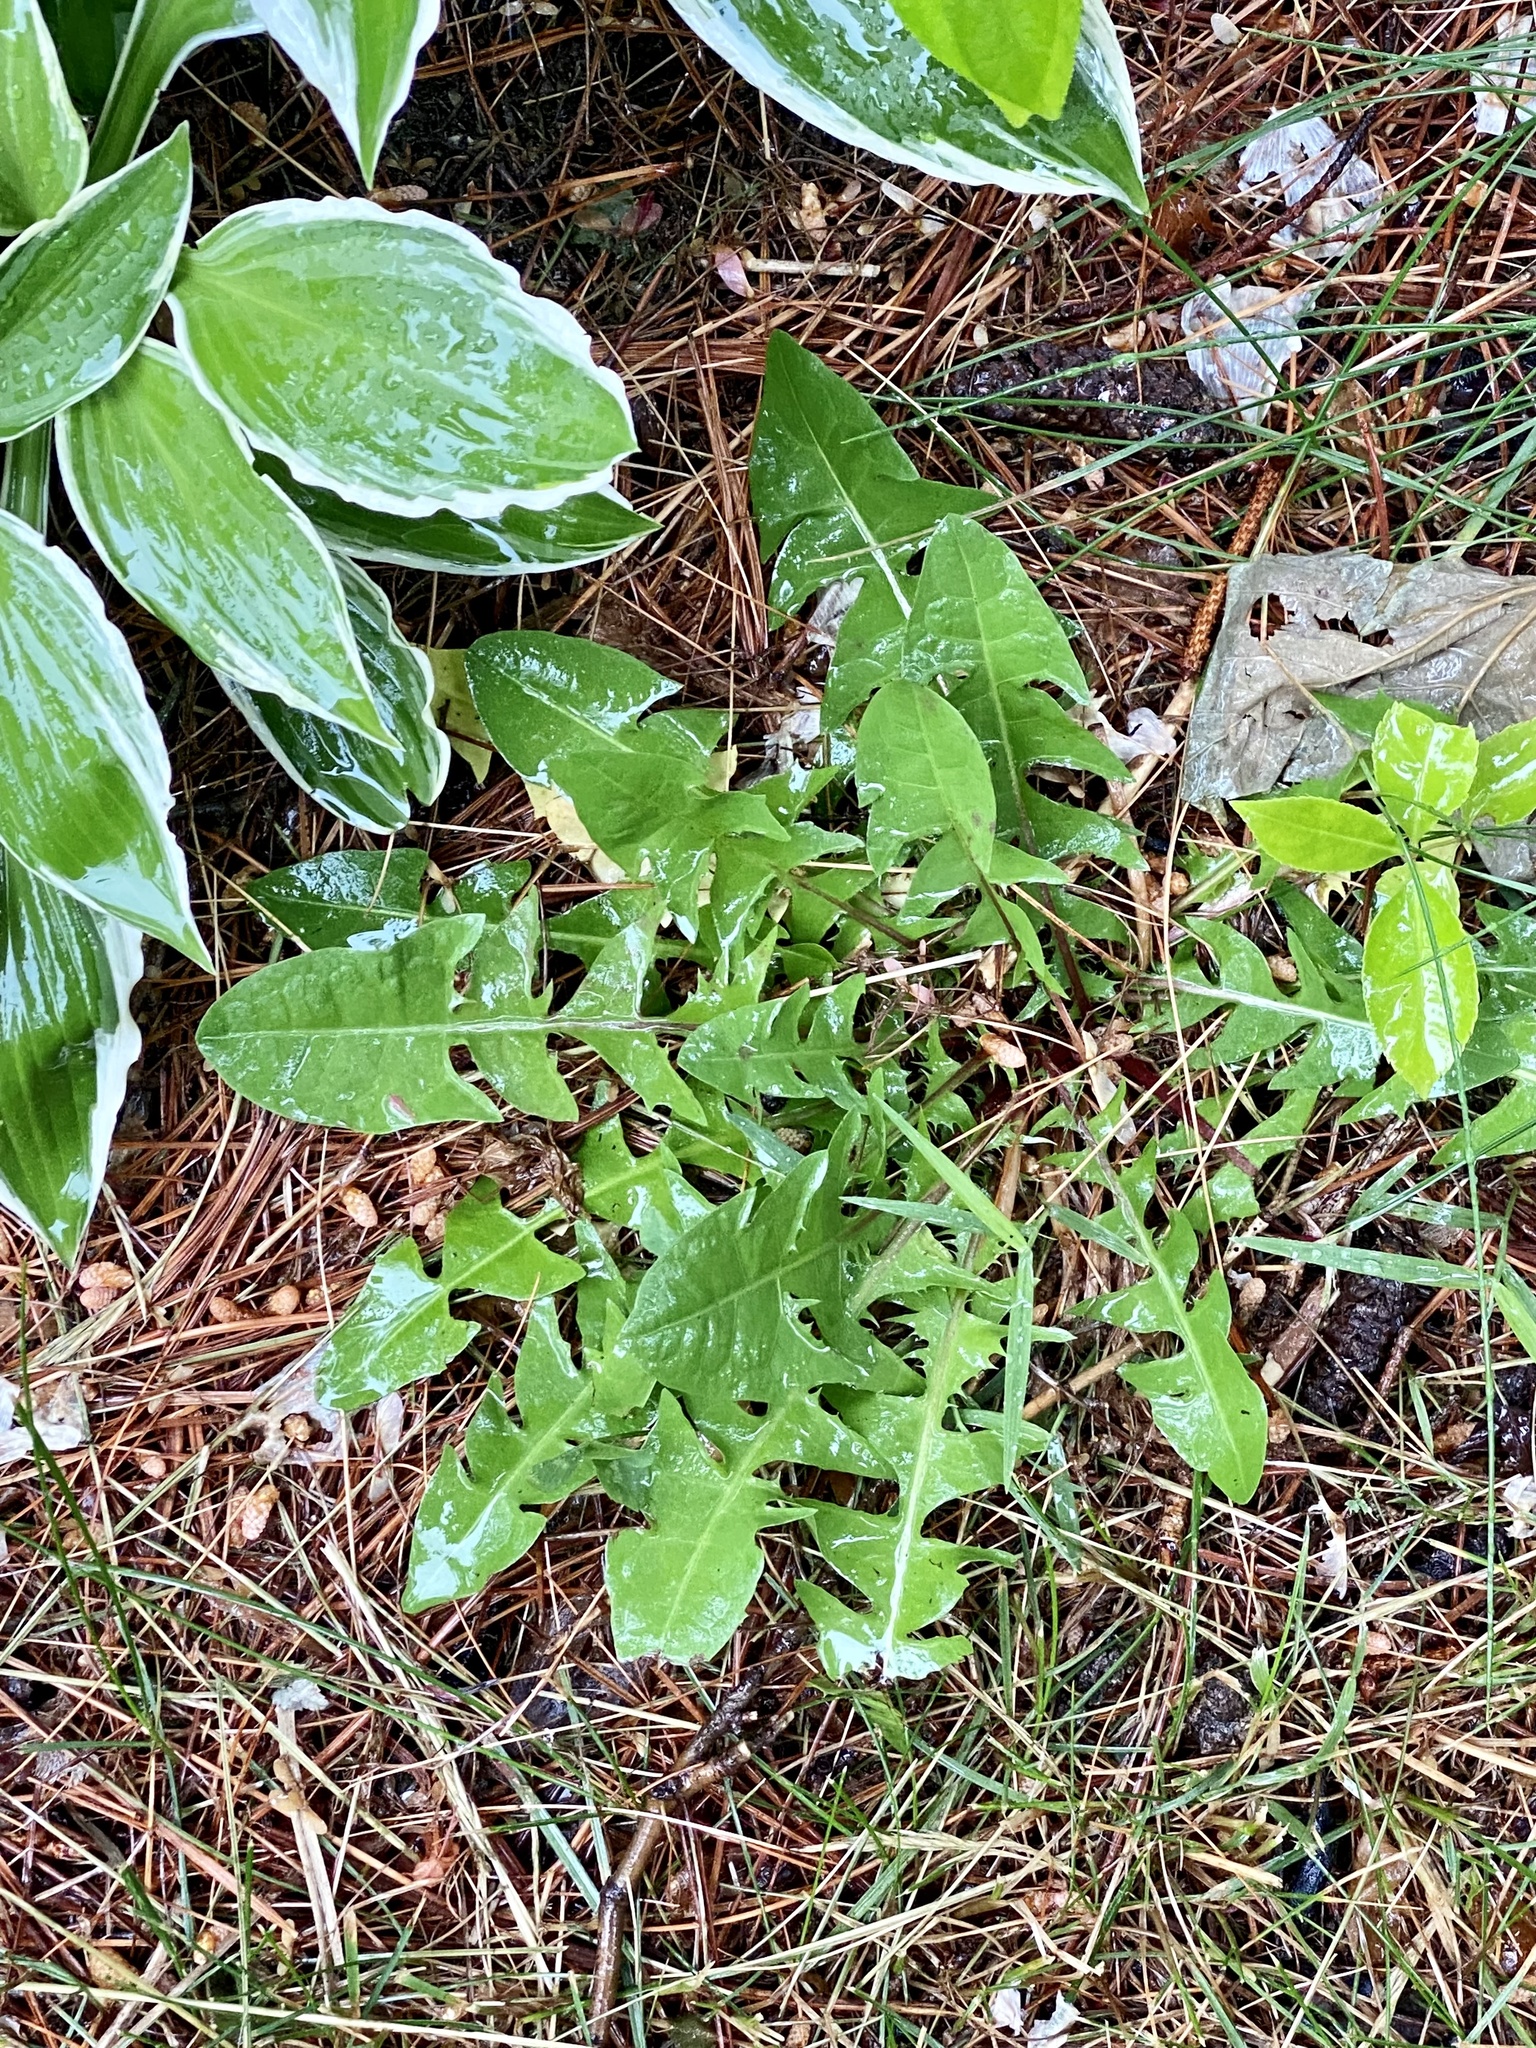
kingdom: Plantae
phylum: Tracheophyta
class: Magnoliopsida
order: Asterales
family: Asteraceae
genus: Taraxacum
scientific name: Taraxacum officinale
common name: Common dandelion
